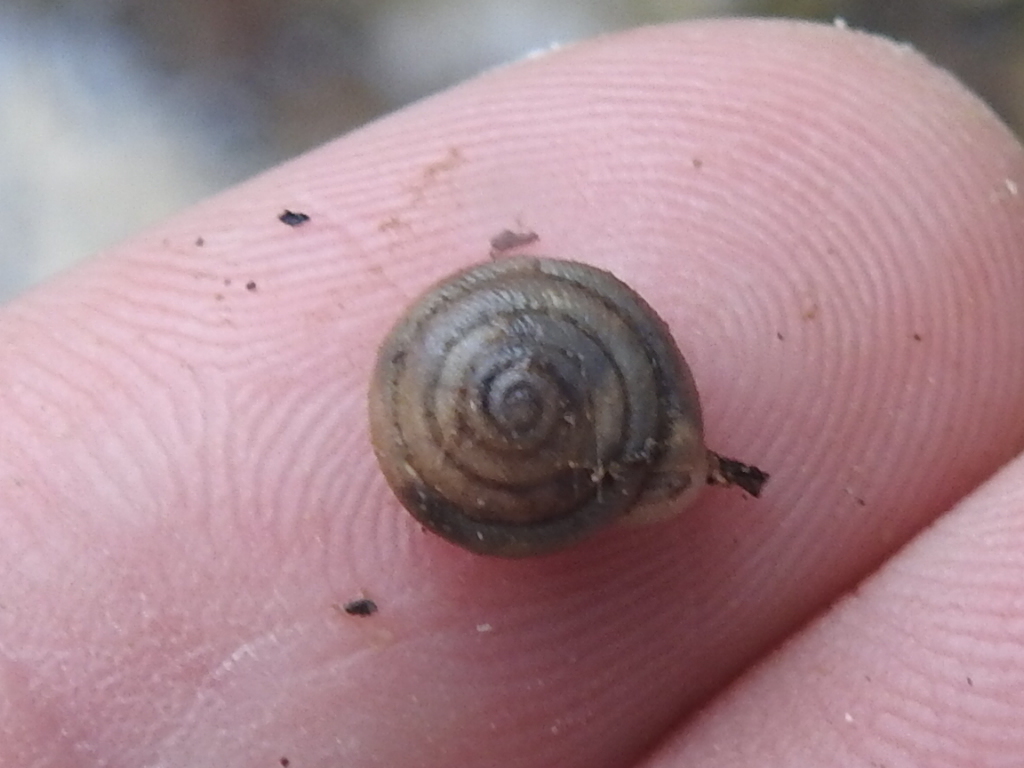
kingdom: Animalia
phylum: Mollusca
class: Gastropoda
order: Stylommatophora
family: Polygyridae
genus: Daedalochila
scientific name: Daedalochila mooreana
